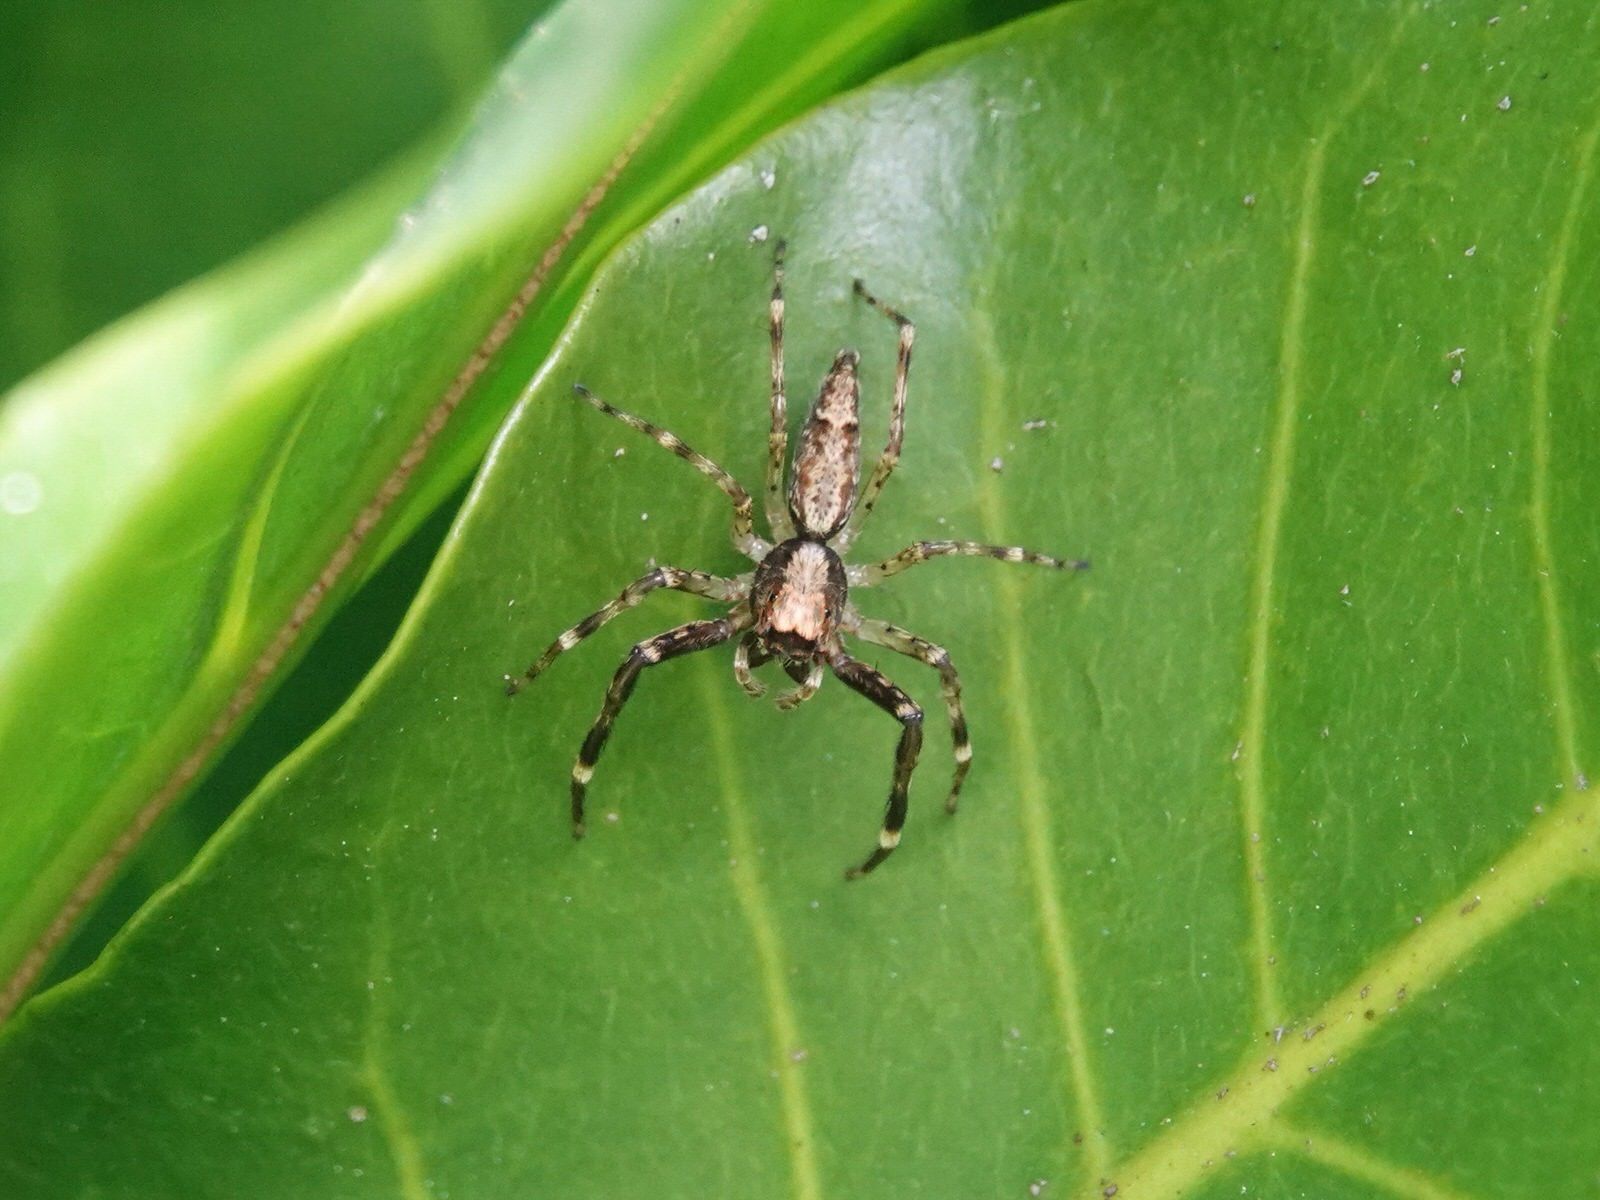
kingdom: Animalia
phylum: Arthropoda
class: Arachnida
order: Araneae
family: Salticidae
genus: Helpis
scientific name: Helpis minitabunda
